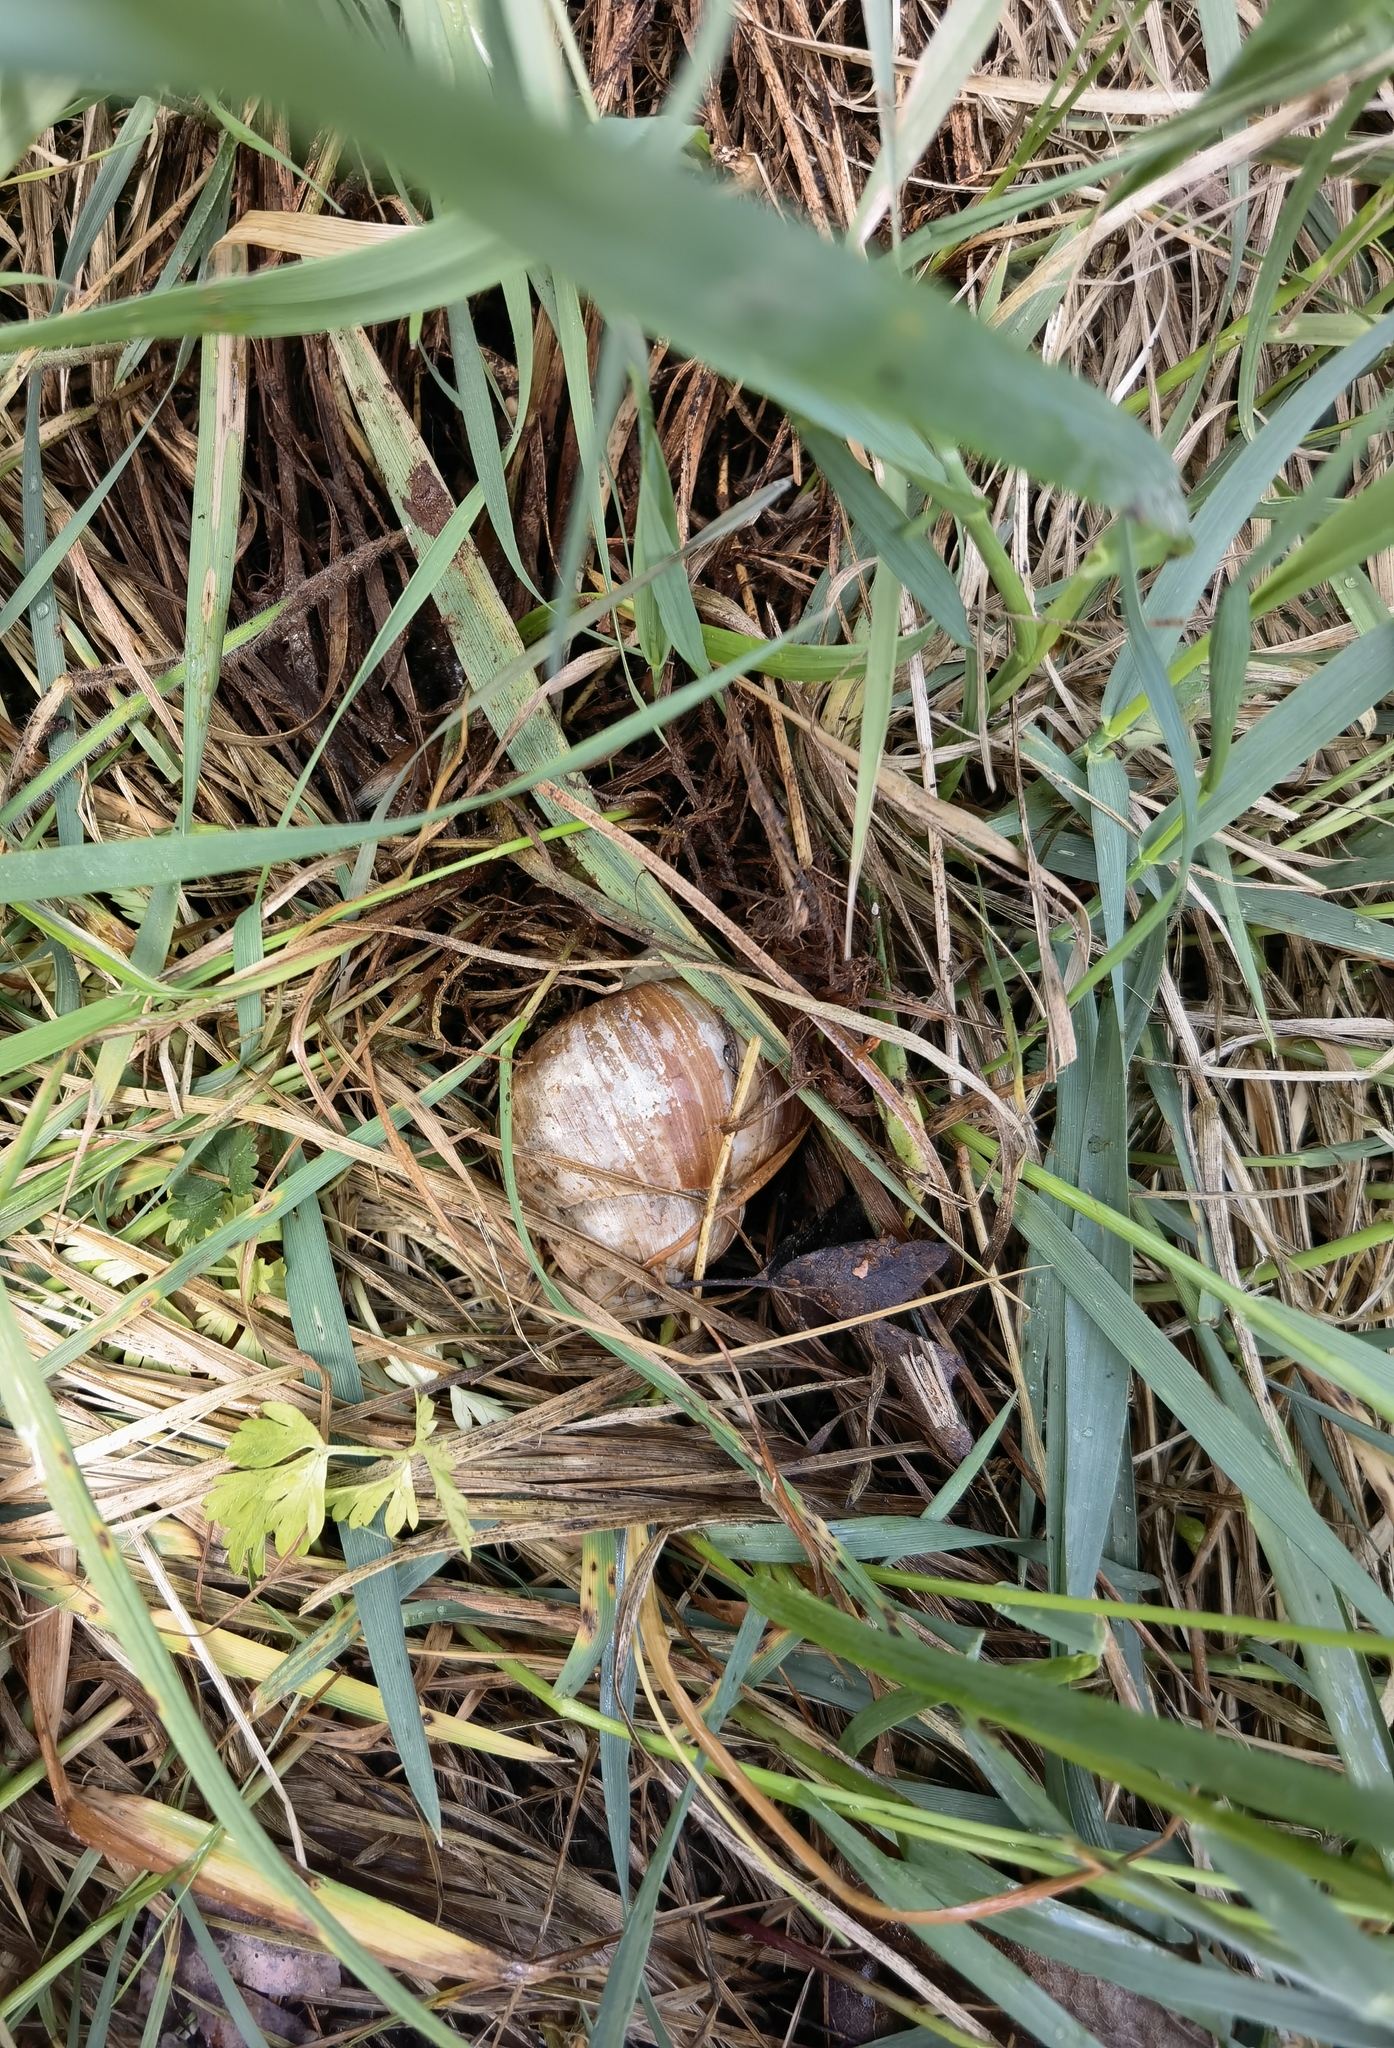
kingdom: Animalia
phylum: Mollusca
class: Gastropoda
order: Stylommatophora
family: Helicidae
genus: Helix
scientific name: Helix pomatia
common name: Roman snail
